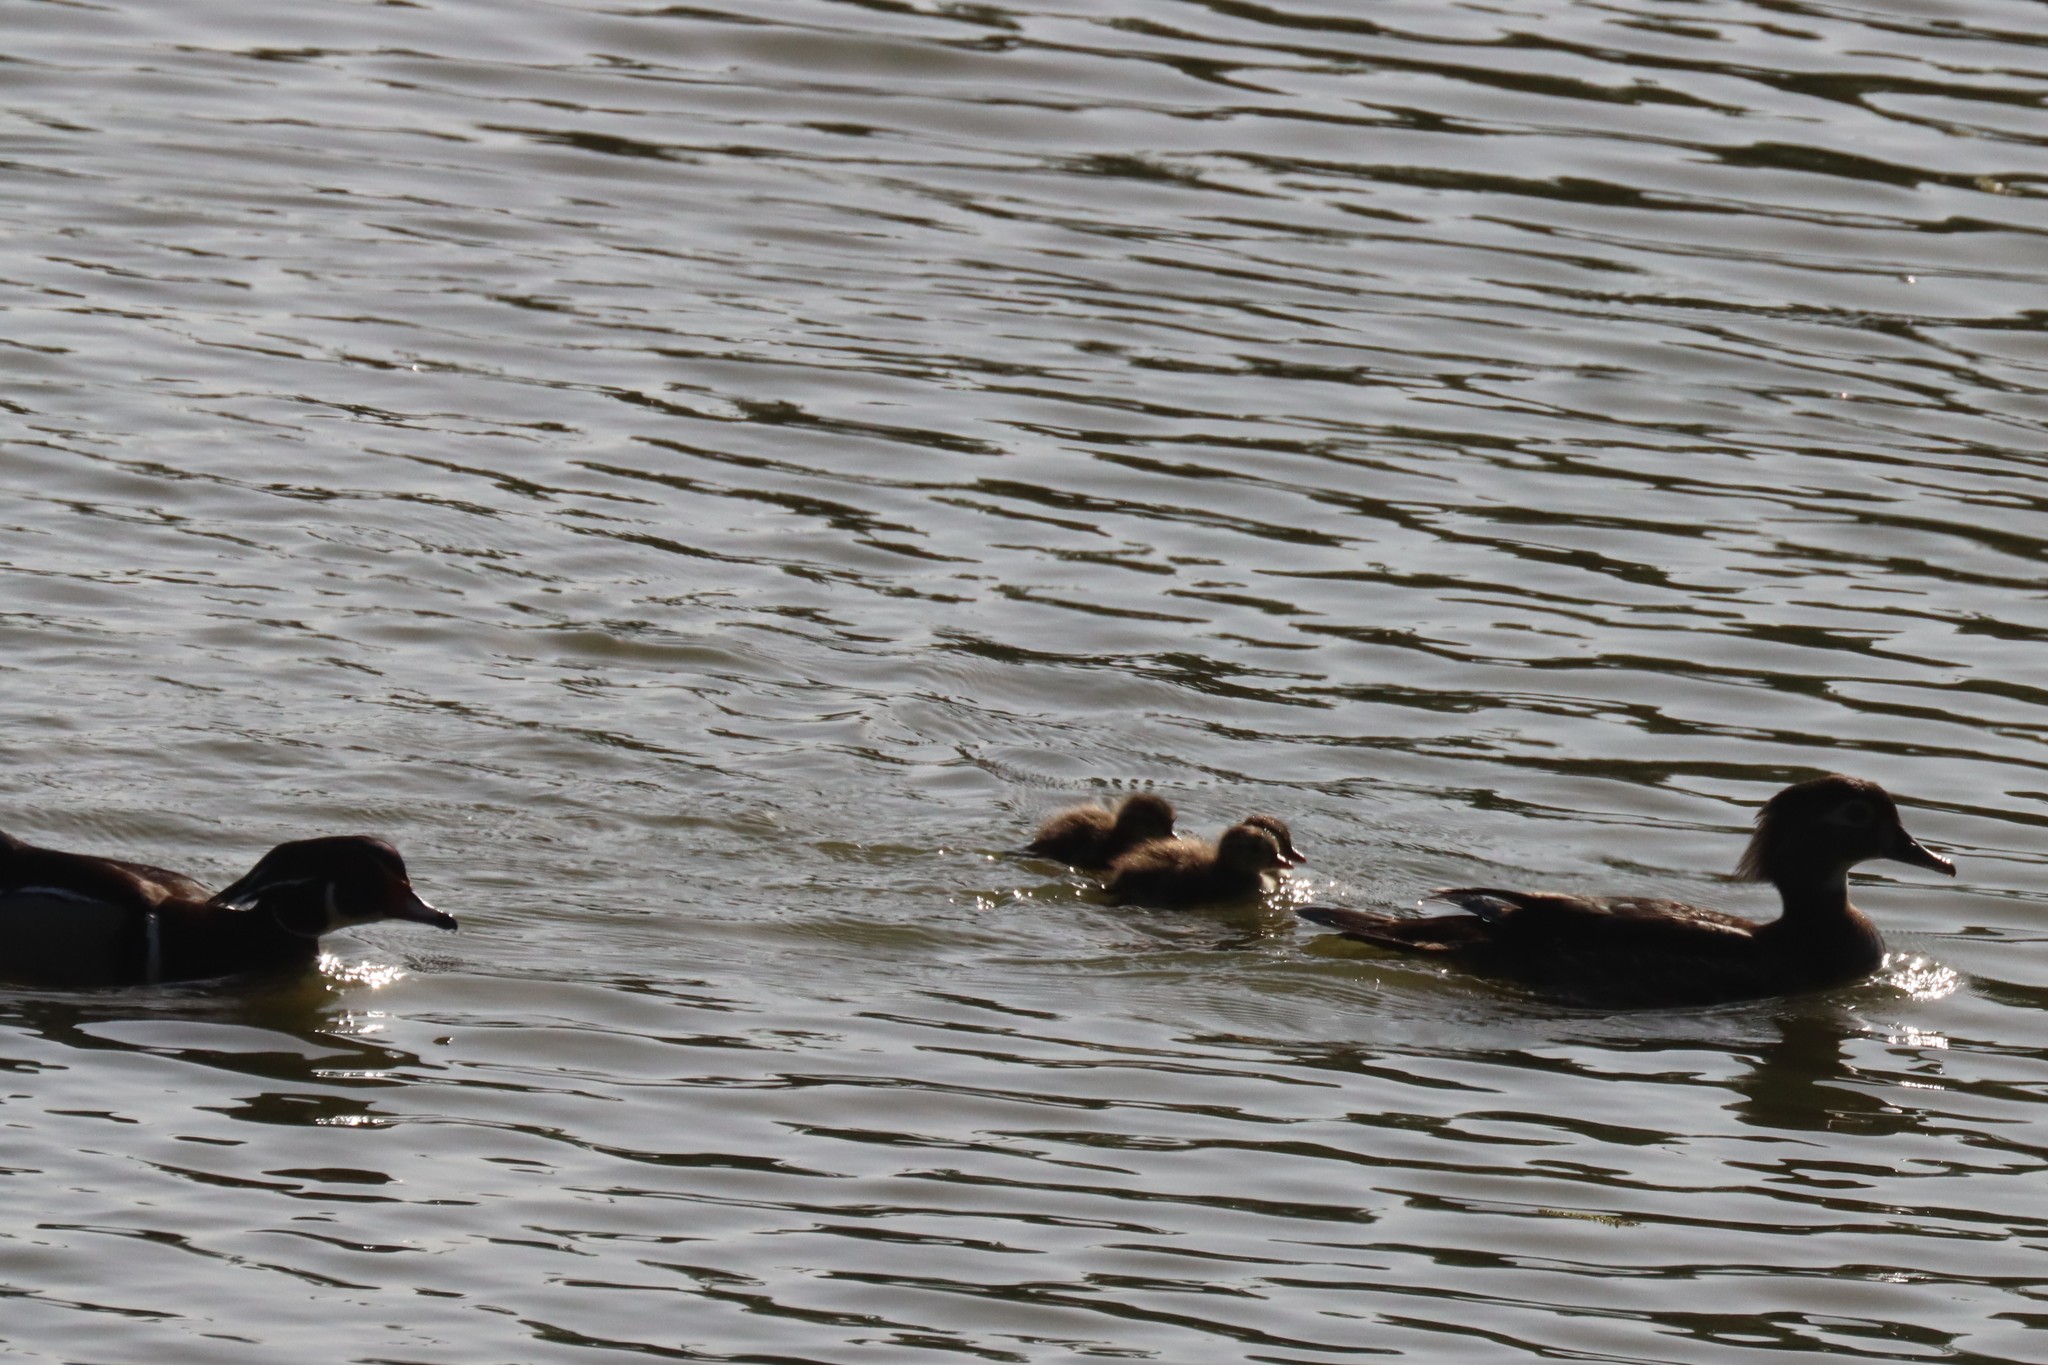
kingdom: Animalia
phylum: Chordata
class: Aves
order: Anseriformes
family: Anatidae
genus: Aix
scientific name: Aix sponsa
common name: Wood duck
